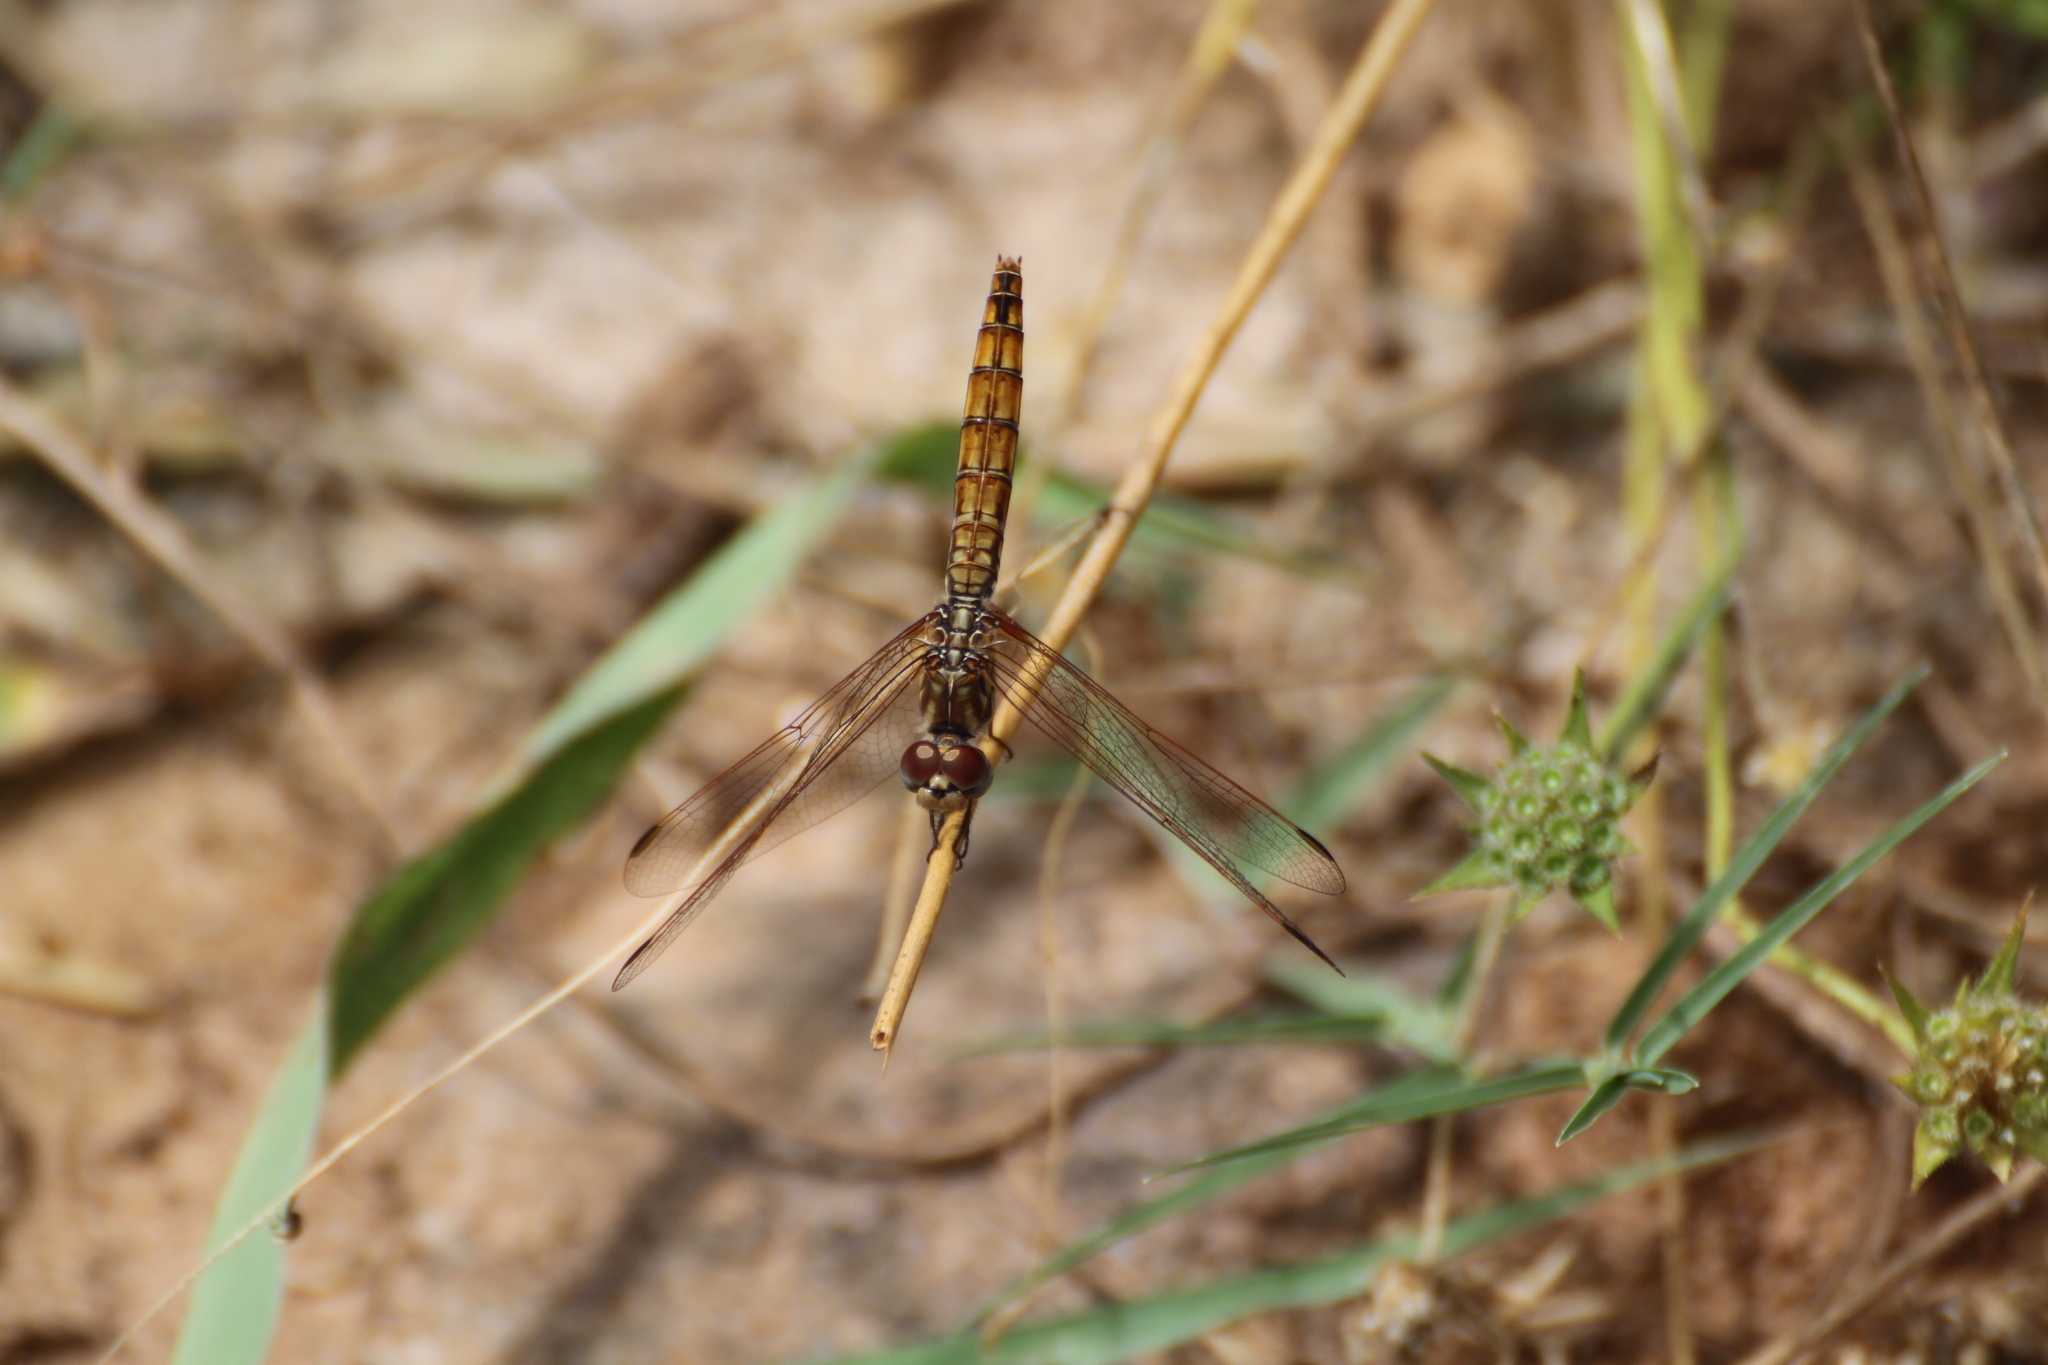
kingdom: Animalia
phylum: Arthropoda
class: Insecta
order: Odonata
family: Libellulidae
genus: Trithemis
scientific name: Trithemis annulata
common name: Violet dropwing
